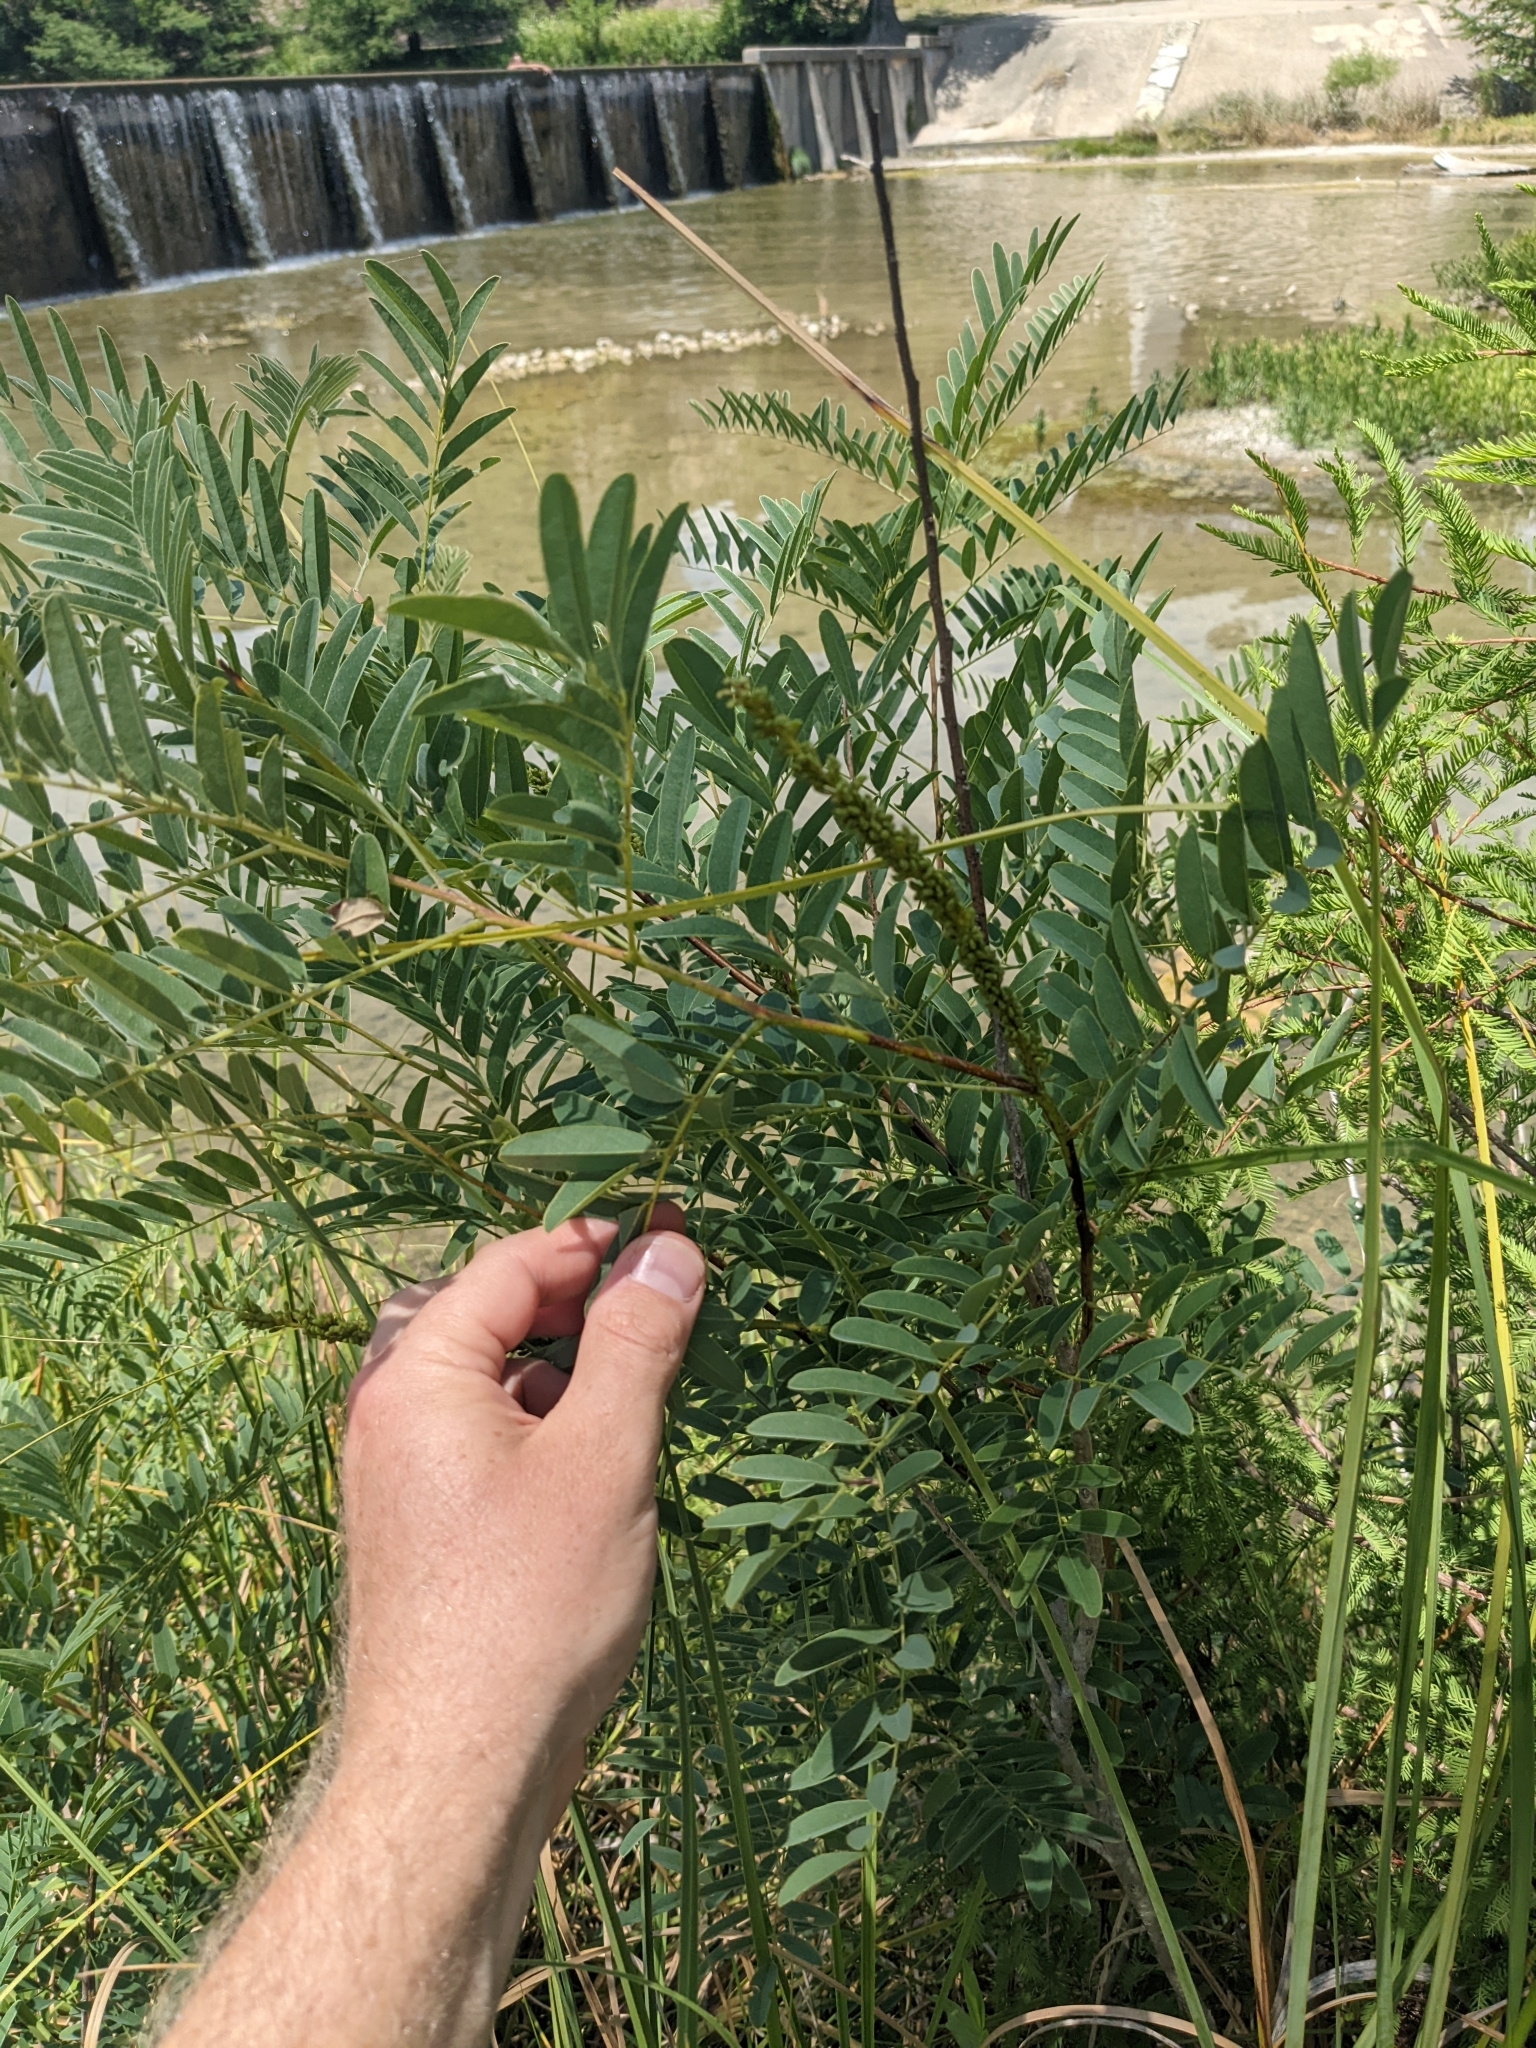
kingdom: Plantae
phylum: Tracheophyta
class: Magnoliopsida
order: Fabales
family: Fabaceae
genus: Amorpha
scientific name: Amorpha fruticosa
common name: False indigo
